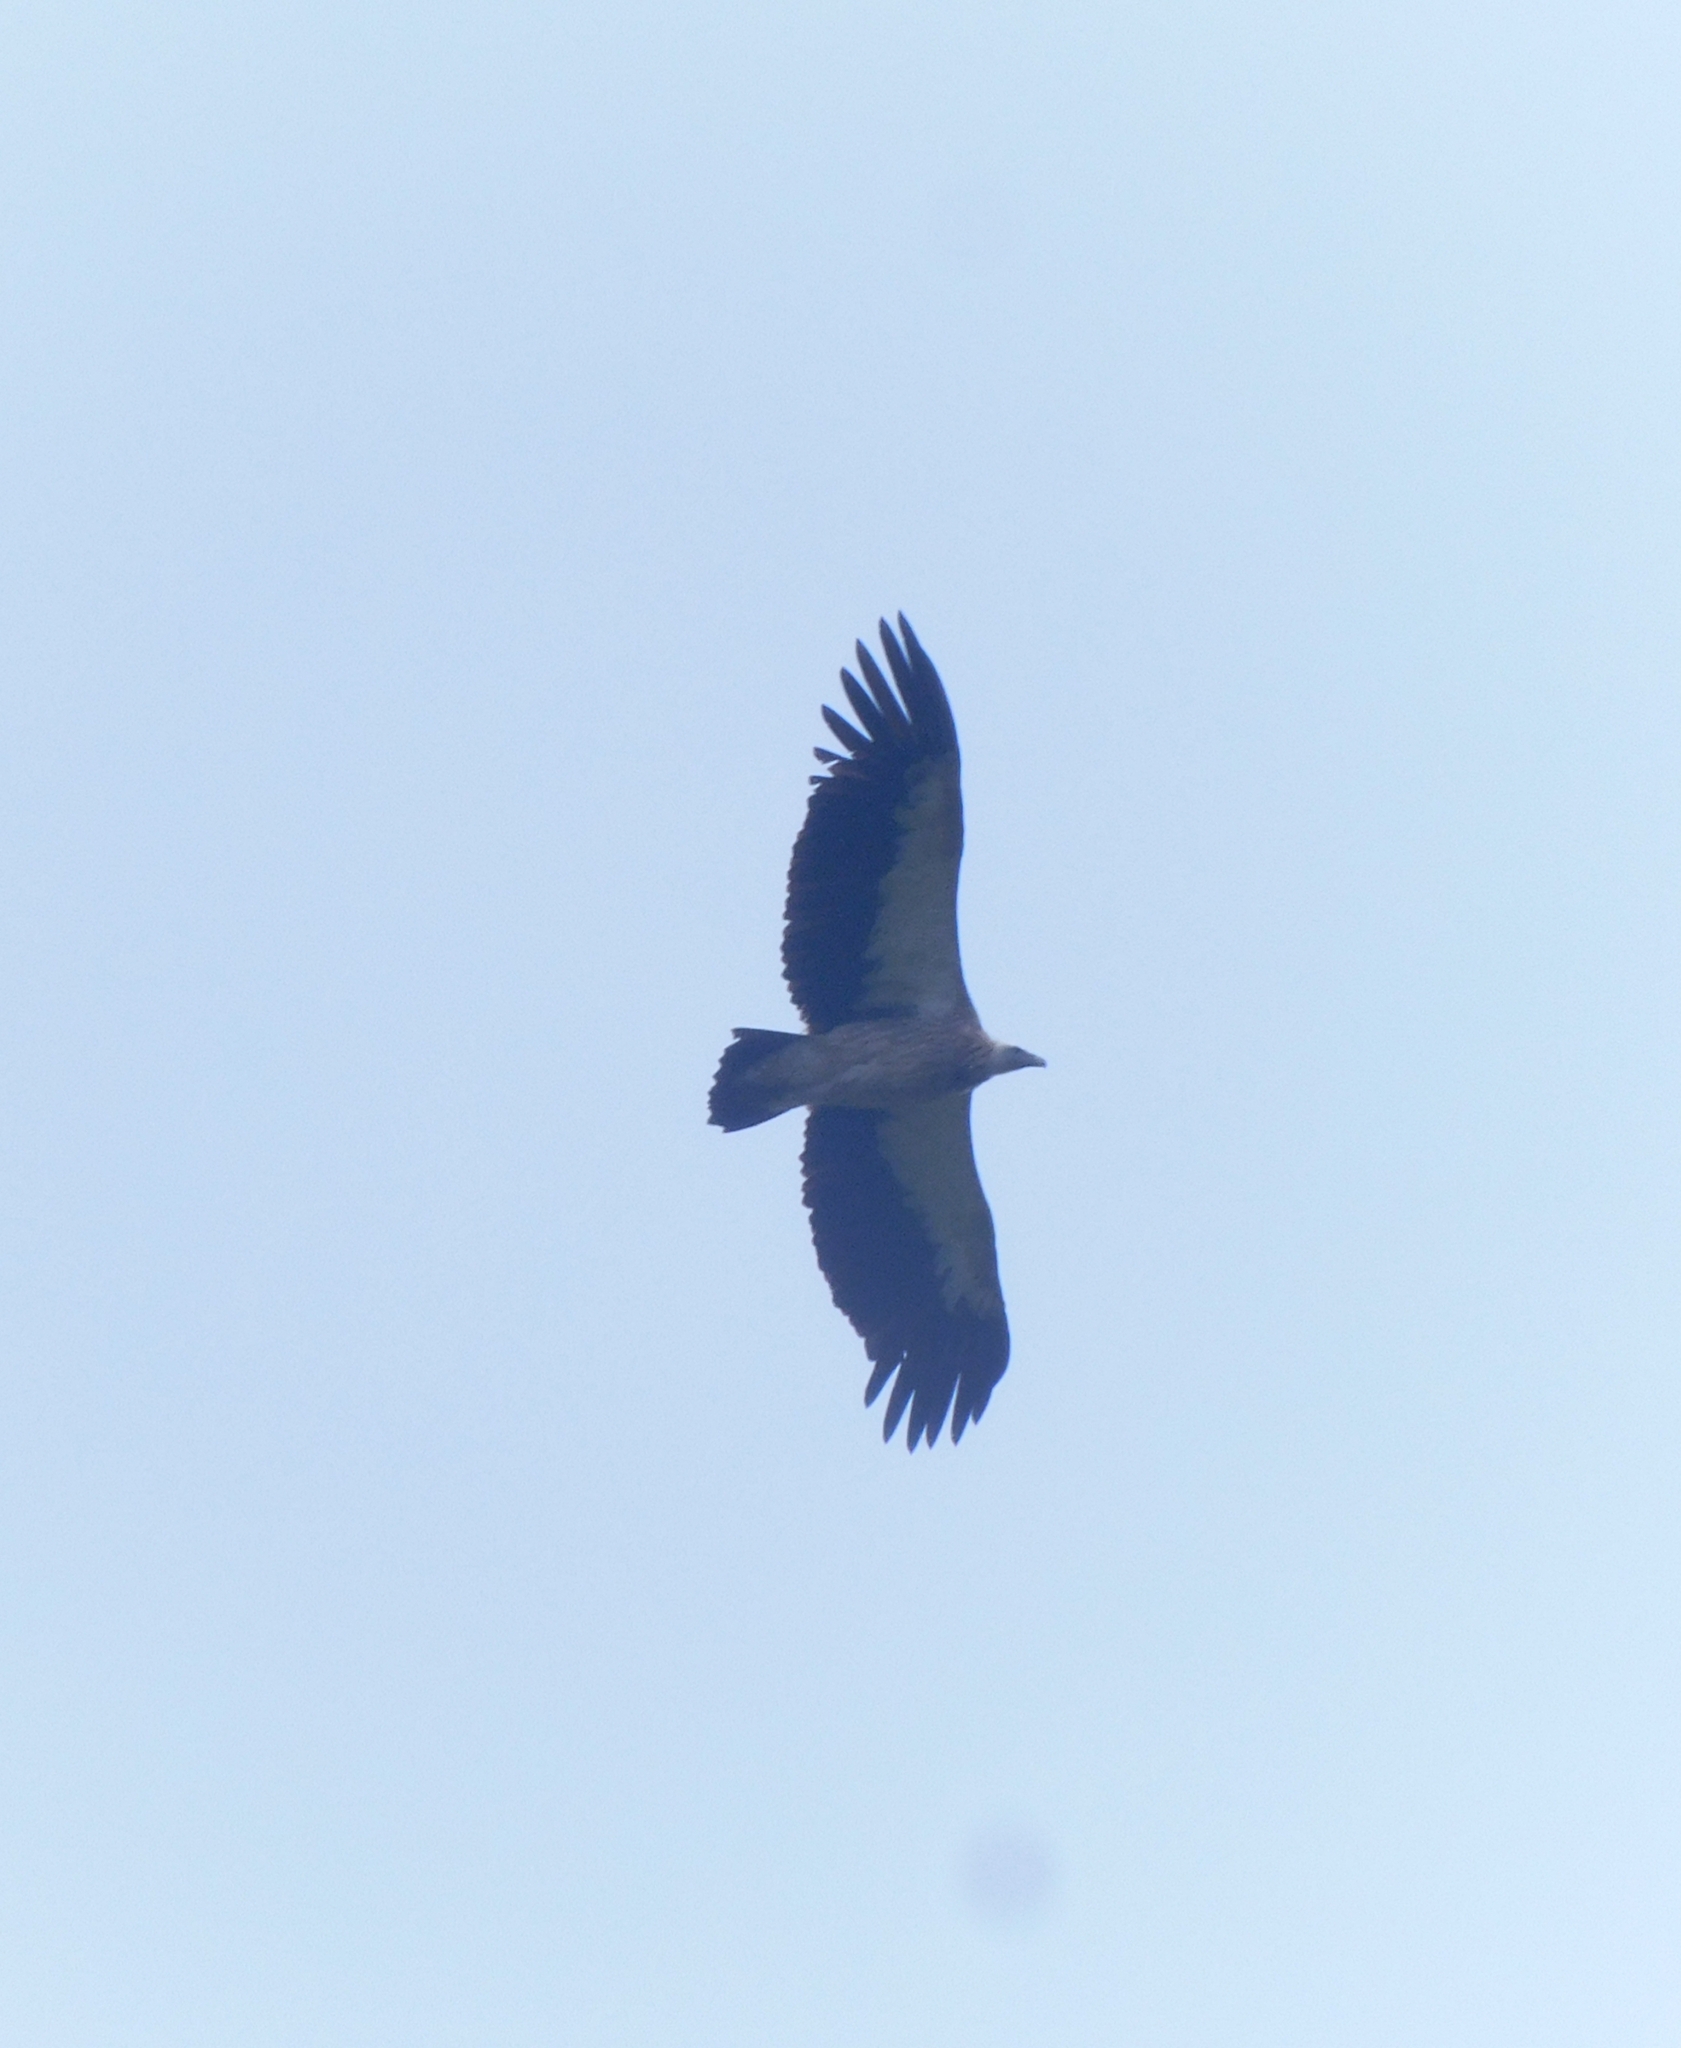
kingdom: Animalia
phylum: Chordata
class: Aves
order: Accipitriformes
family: Accipitridae
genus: Gyps
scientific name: Gyps himalayensis
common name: Himalayan griffon
